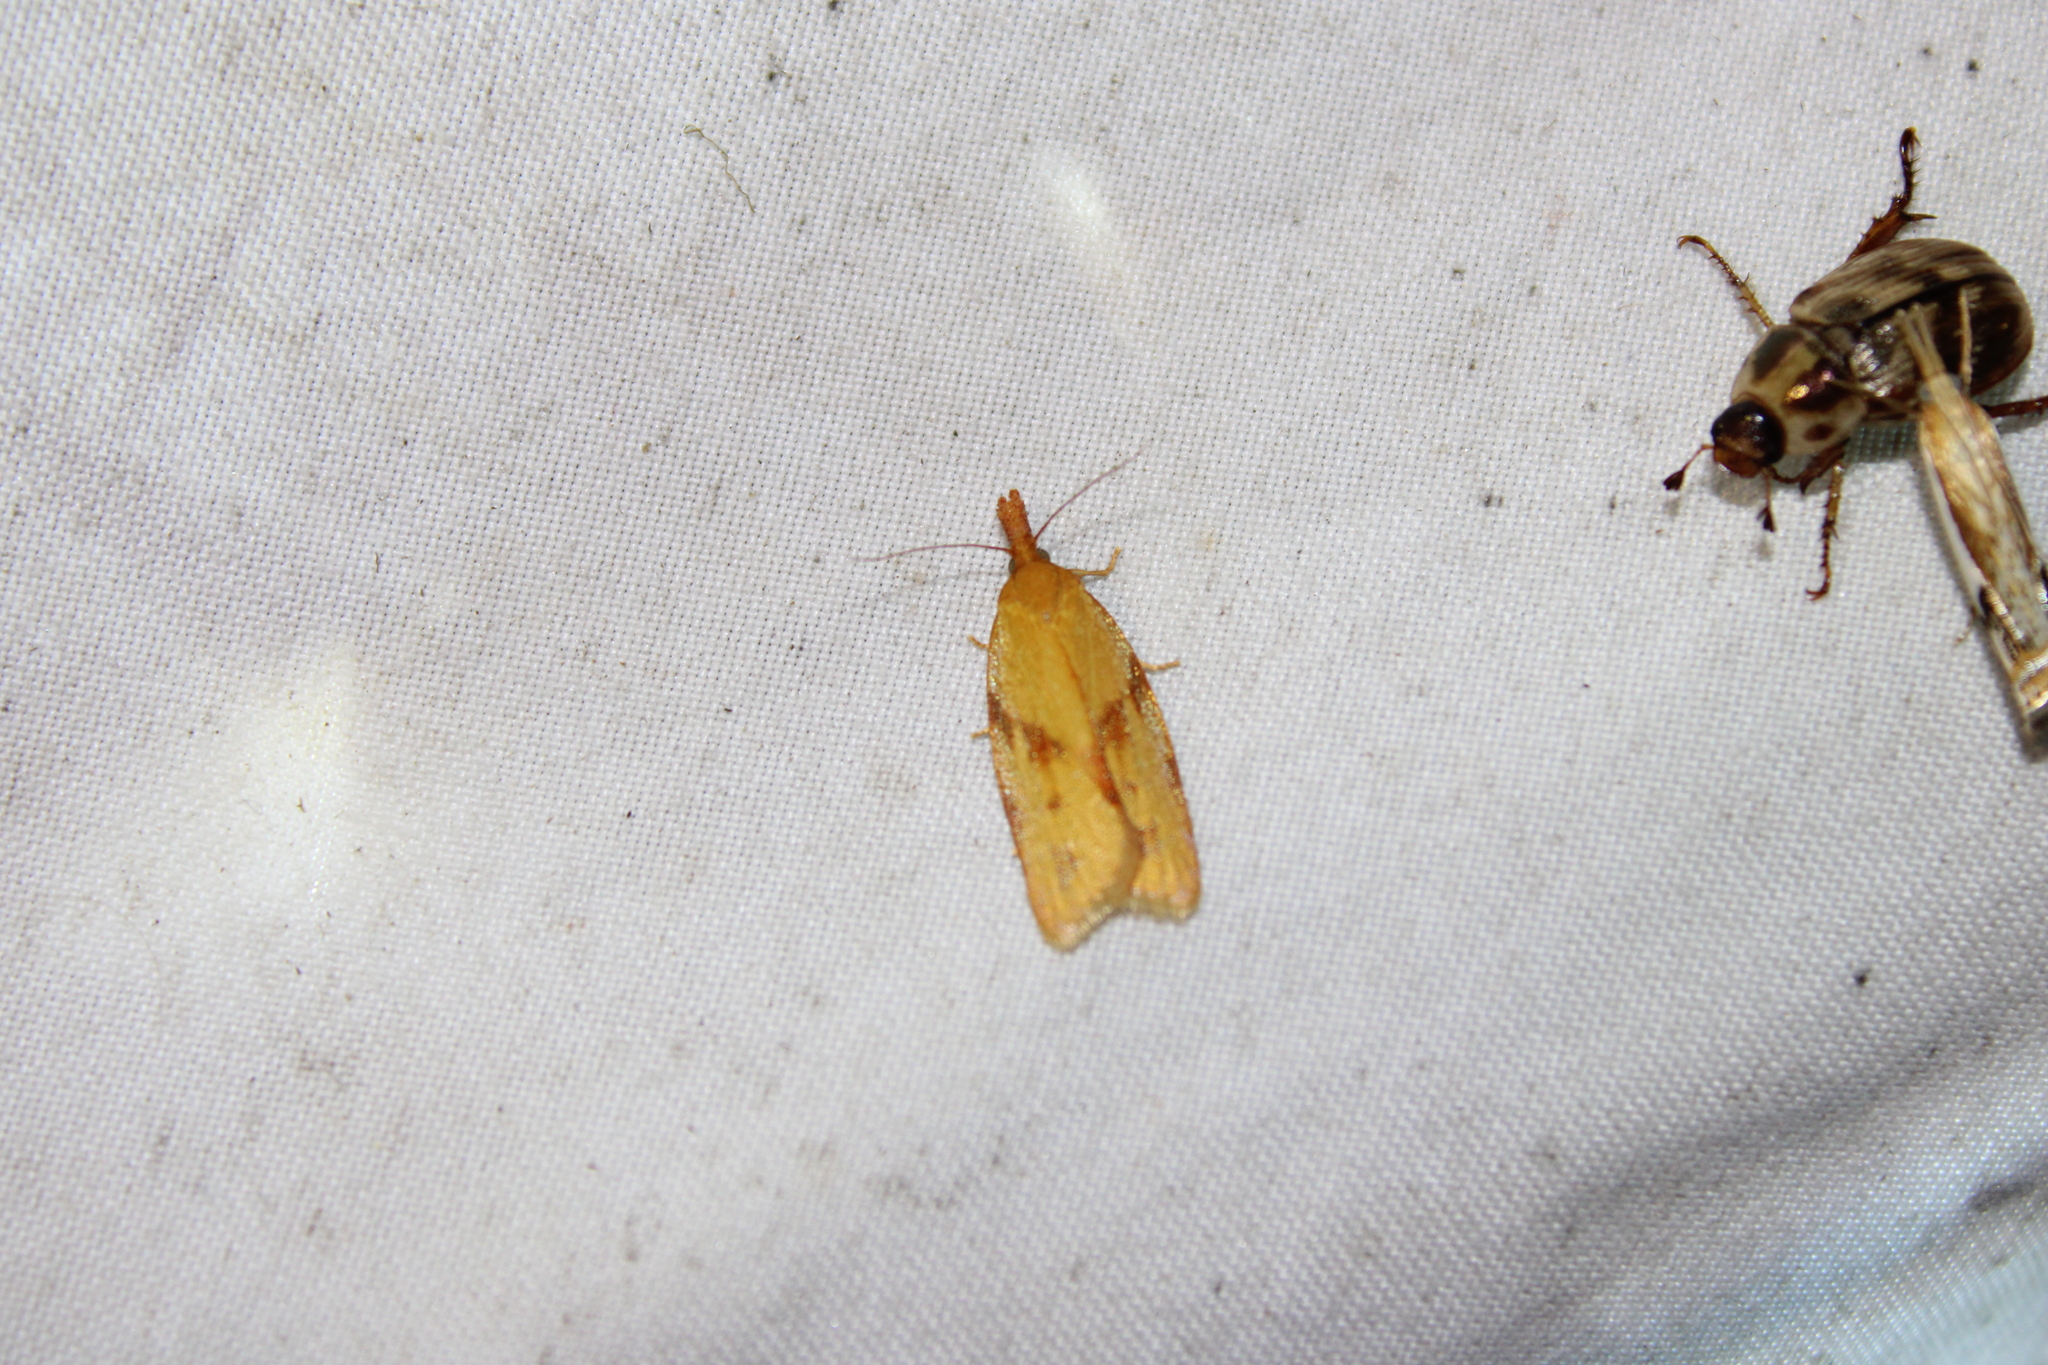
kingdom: Animalia
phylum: Arthropoda
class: Insecta
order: Lepidoptera
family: Tortricidae
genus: Sparganothis
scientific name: Sparganothis unifasciana
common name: One-lined sparganothis moth
